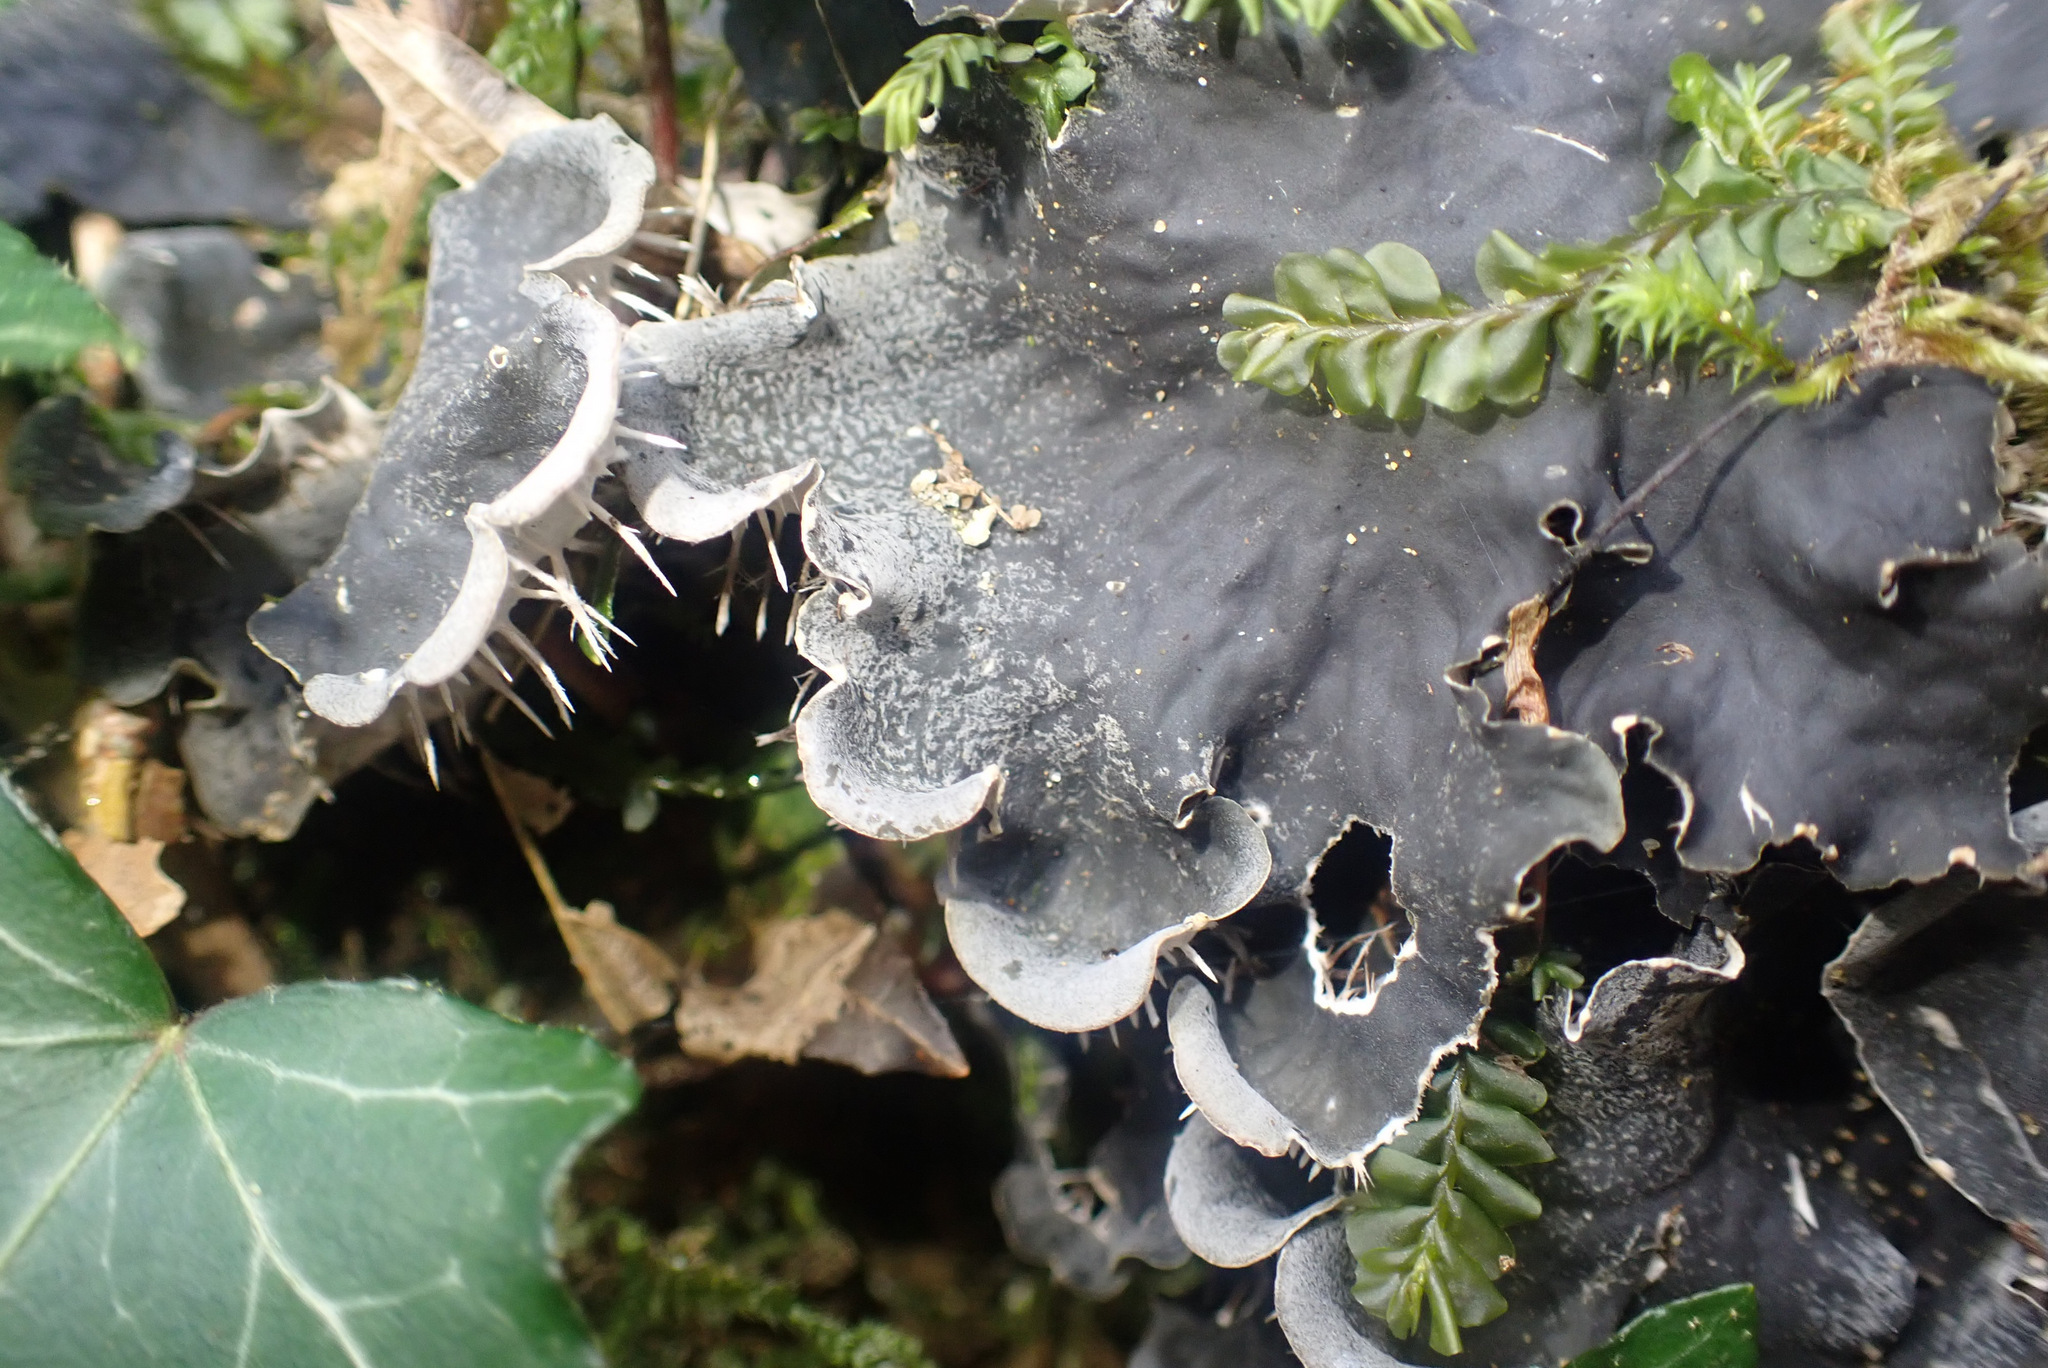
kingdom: Fungi
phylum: Ascomycota
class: Lecanoromycetes
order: Peltigerales
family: Peltigeraceae
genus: Peltigera
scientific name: Peltigera praetextata
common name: Scaly dog-lichen
